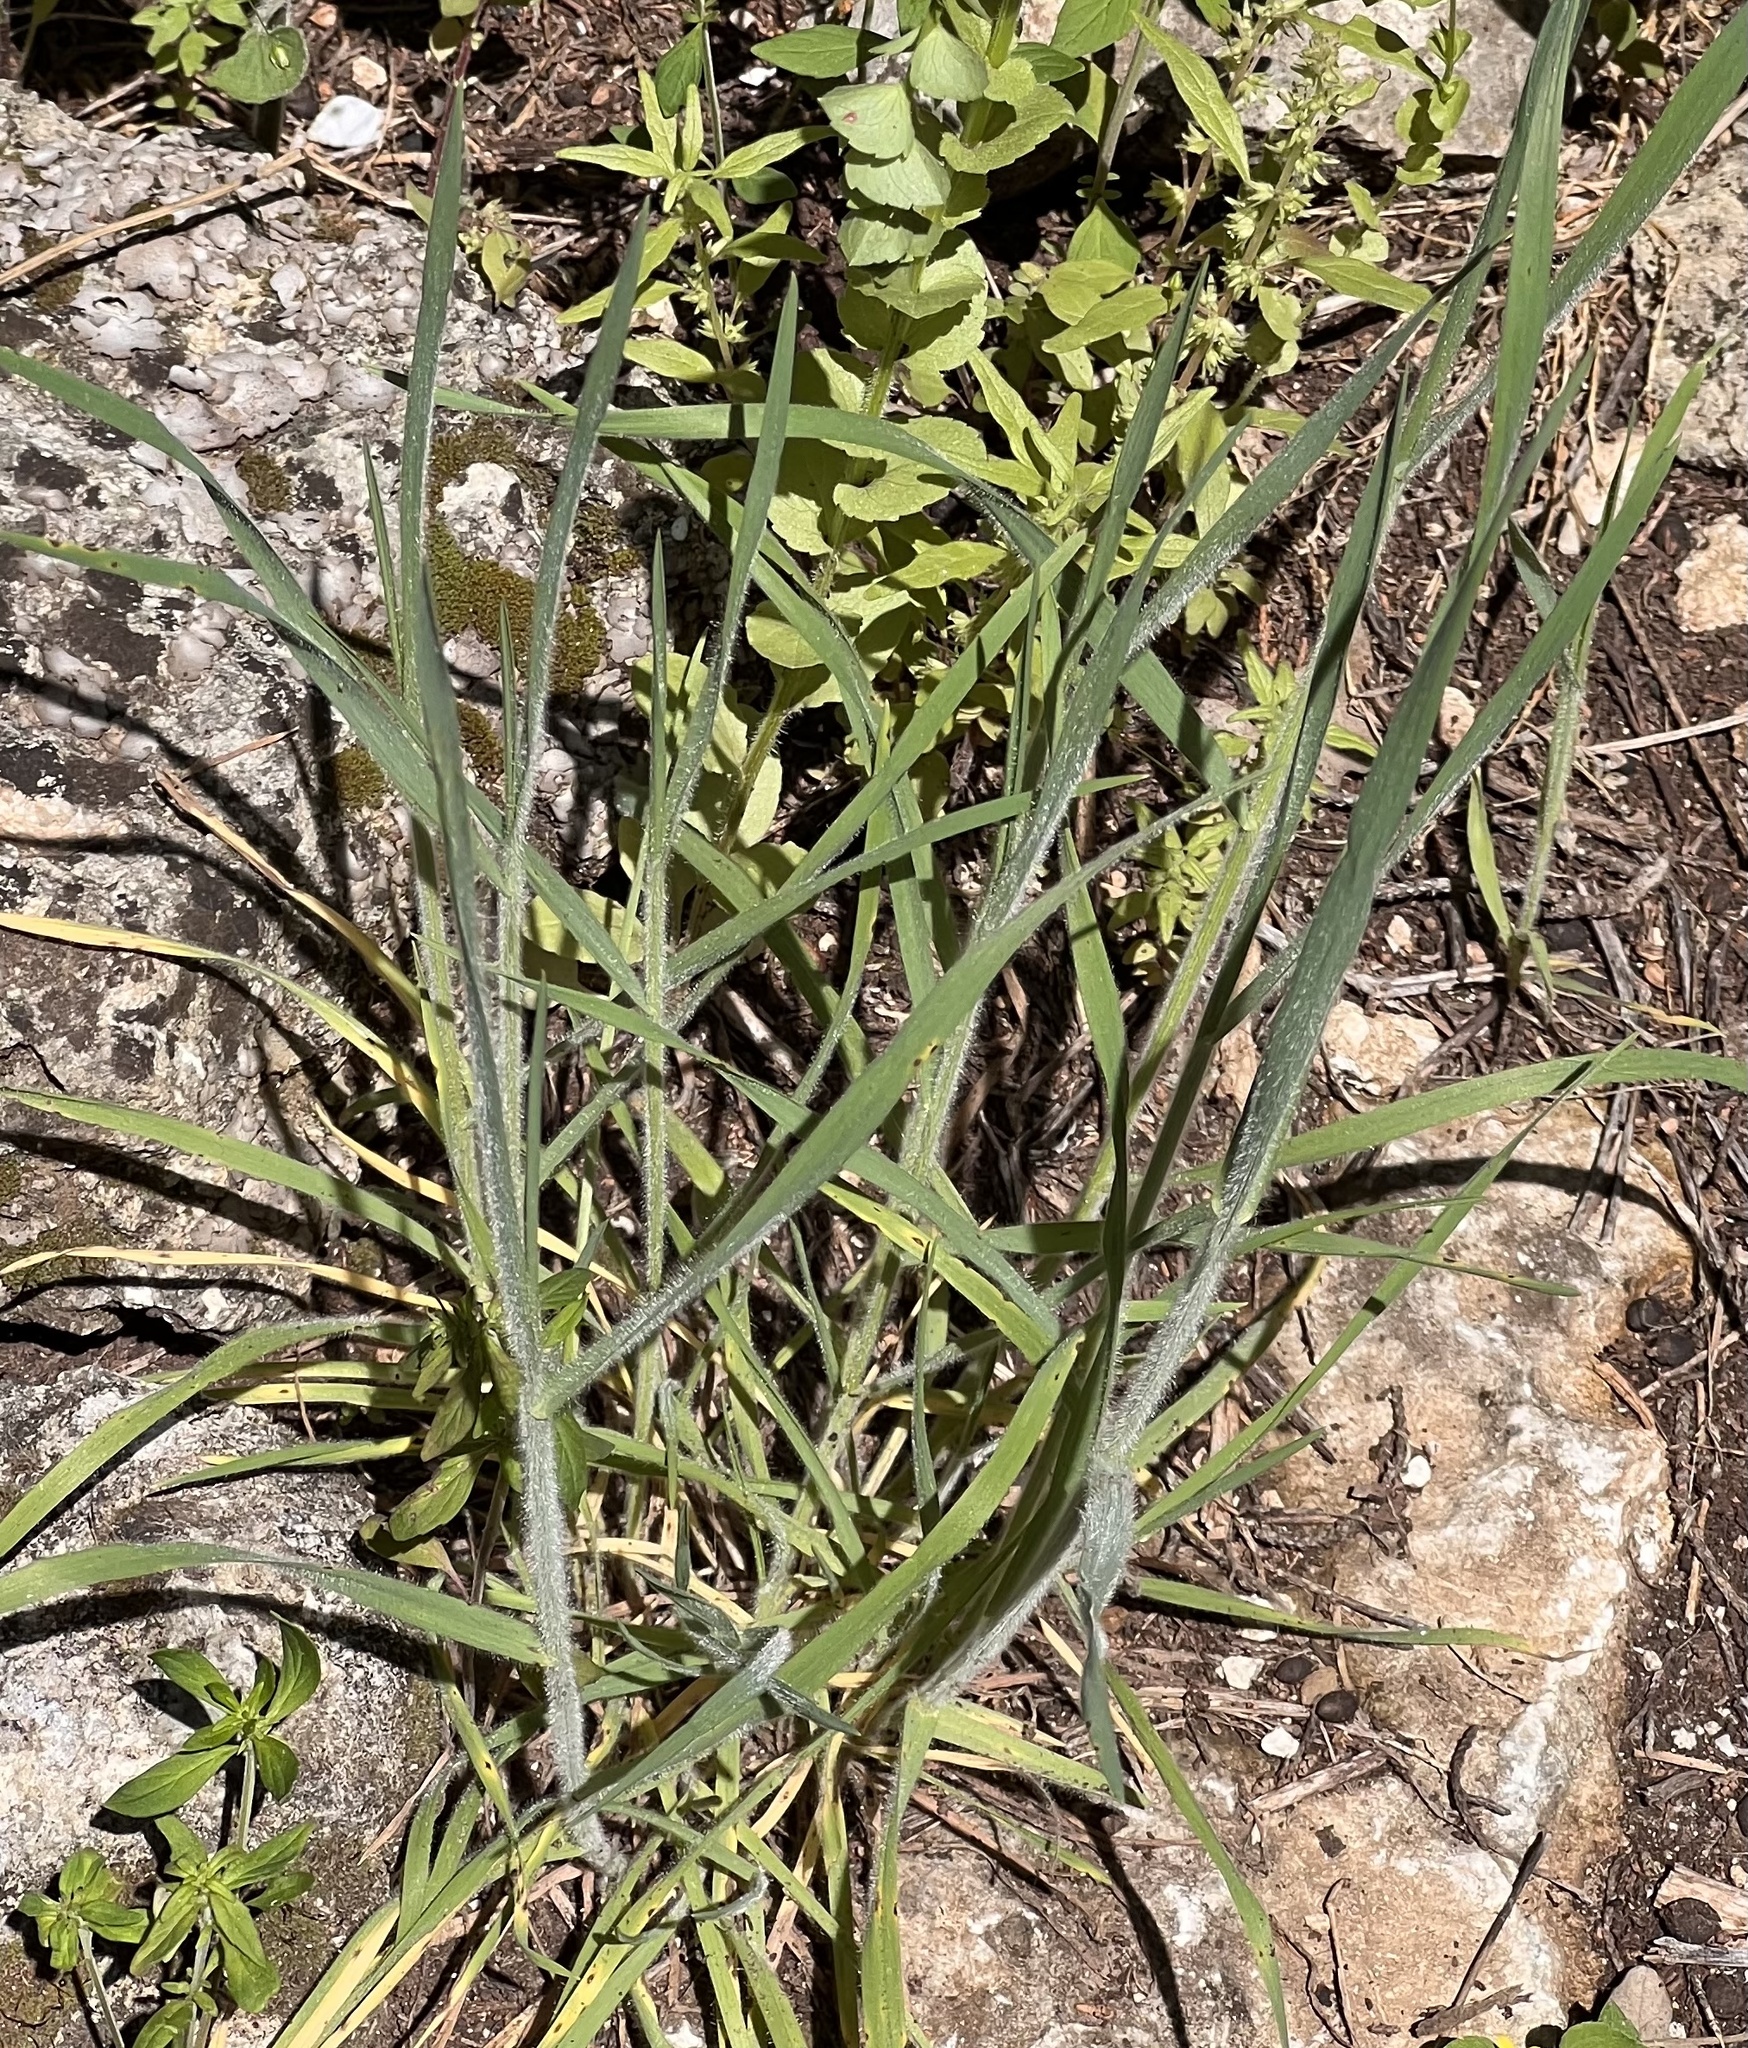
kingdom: Plantae
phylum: Tracheophyta
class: Magnoliopsida
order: Asterales
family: Asteraceae
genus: Tragopogon
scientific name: Tragopogon dubius
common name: Yellow salsify
